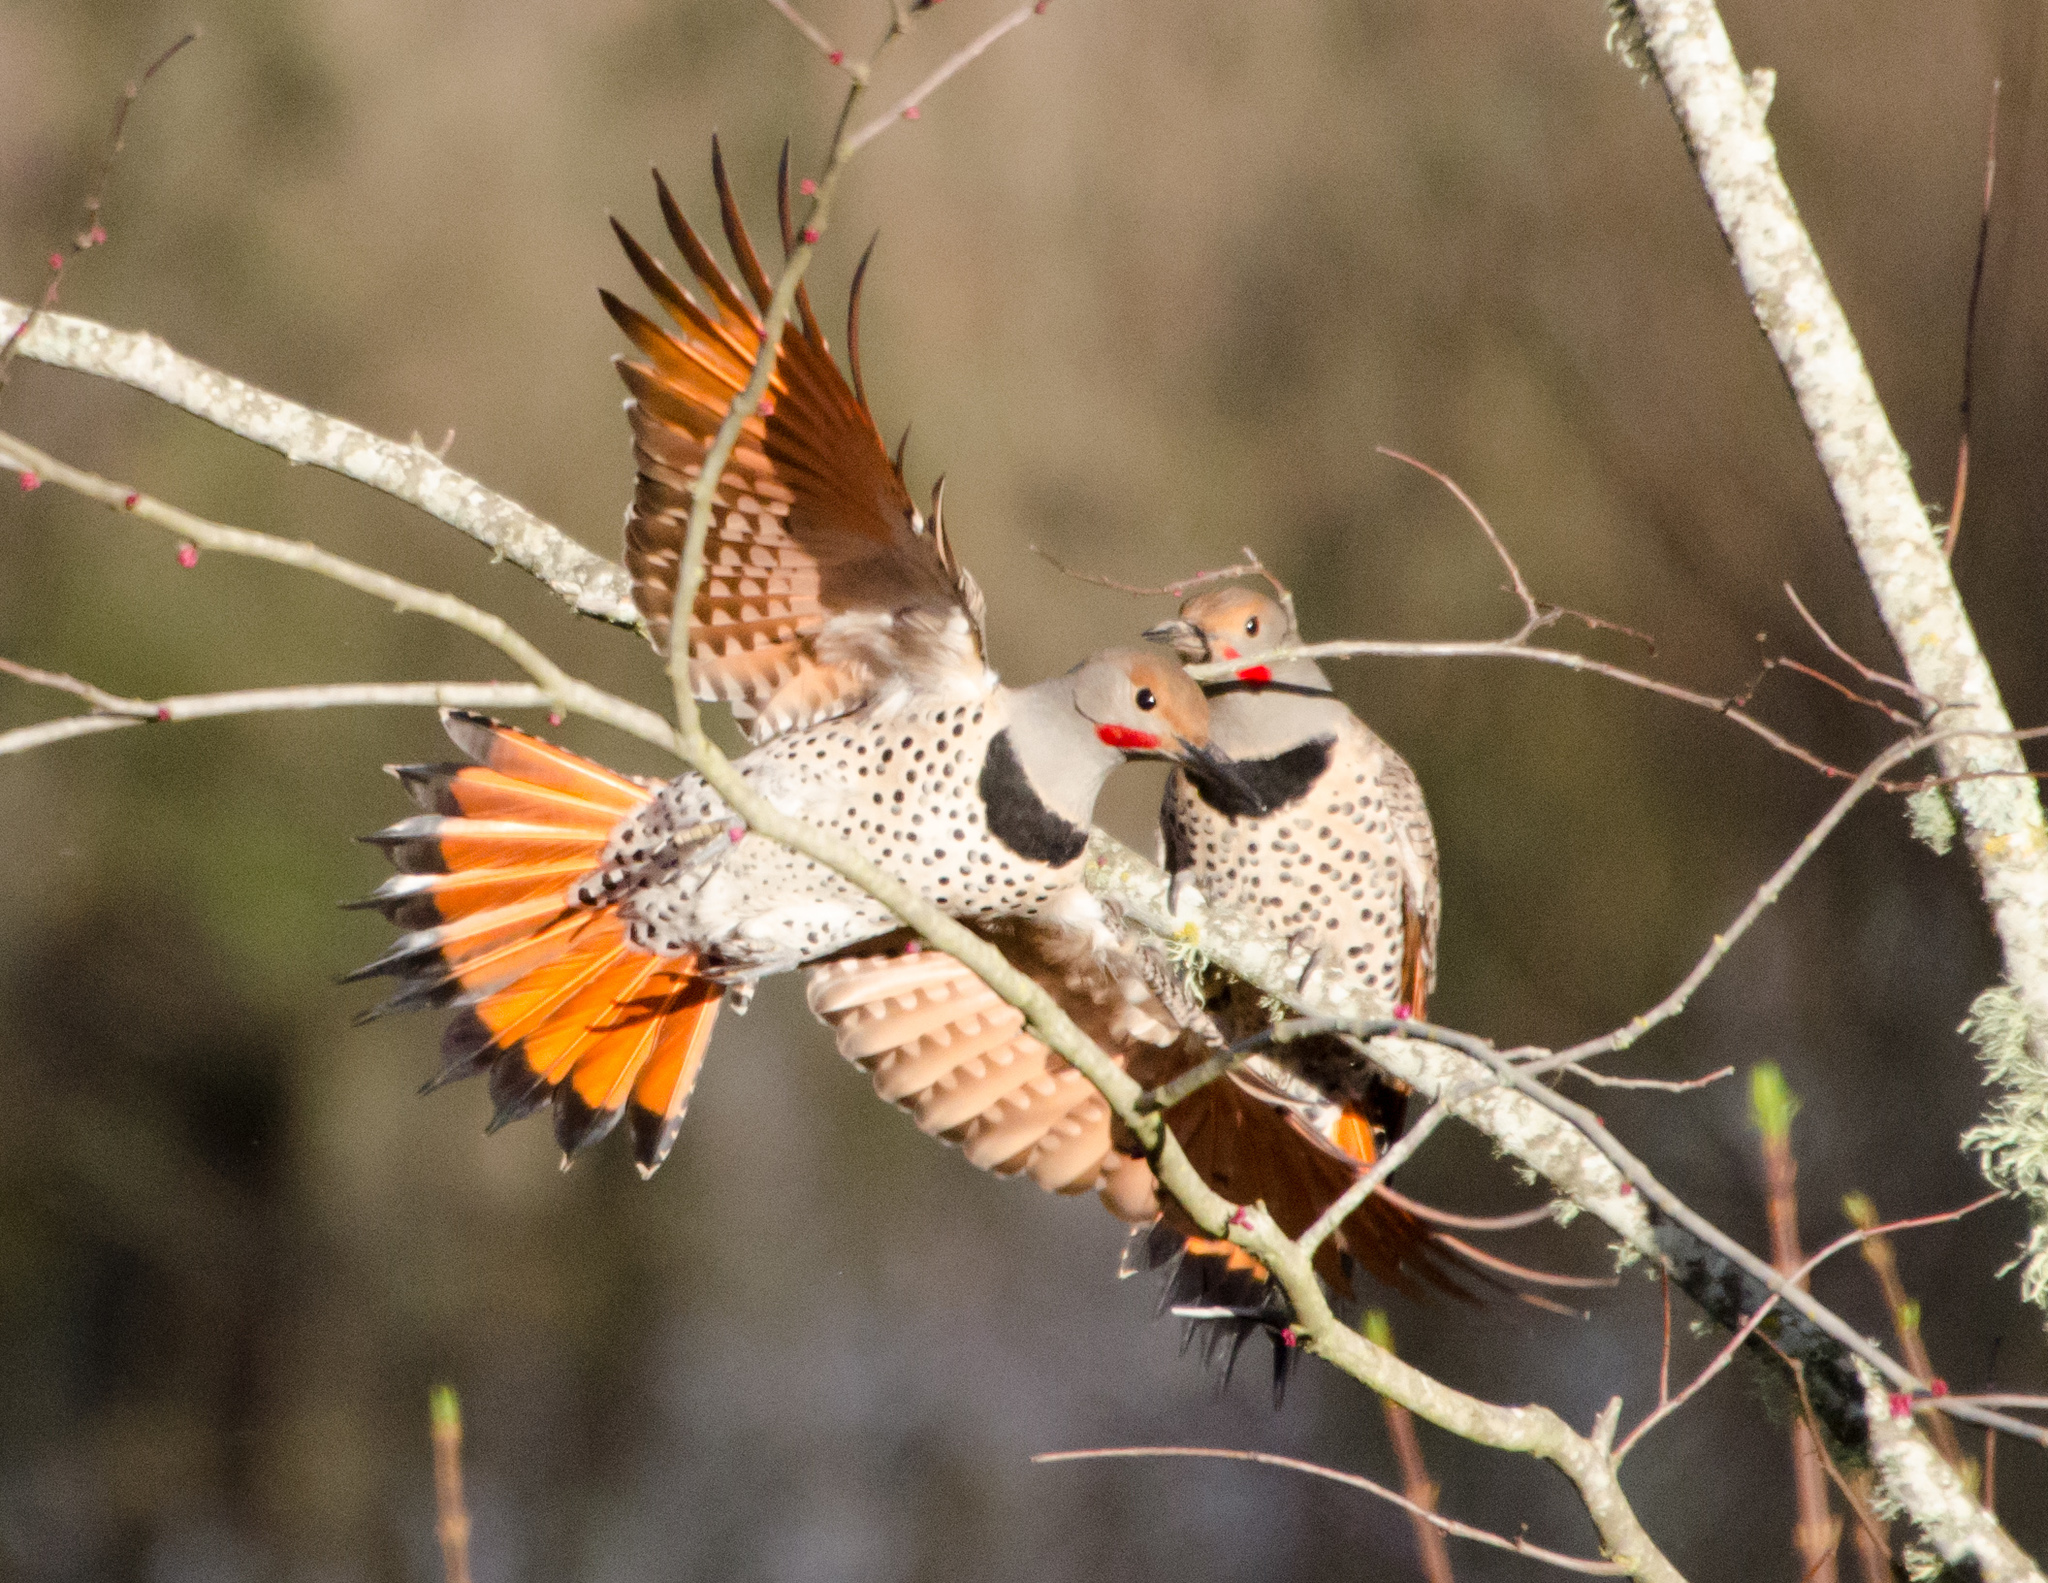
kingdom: Animalia
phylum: Chordata
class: Aves
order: Piciformes
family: Picidae
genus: Colaptes
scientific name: Colaptes auratus
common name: Northern flicker
